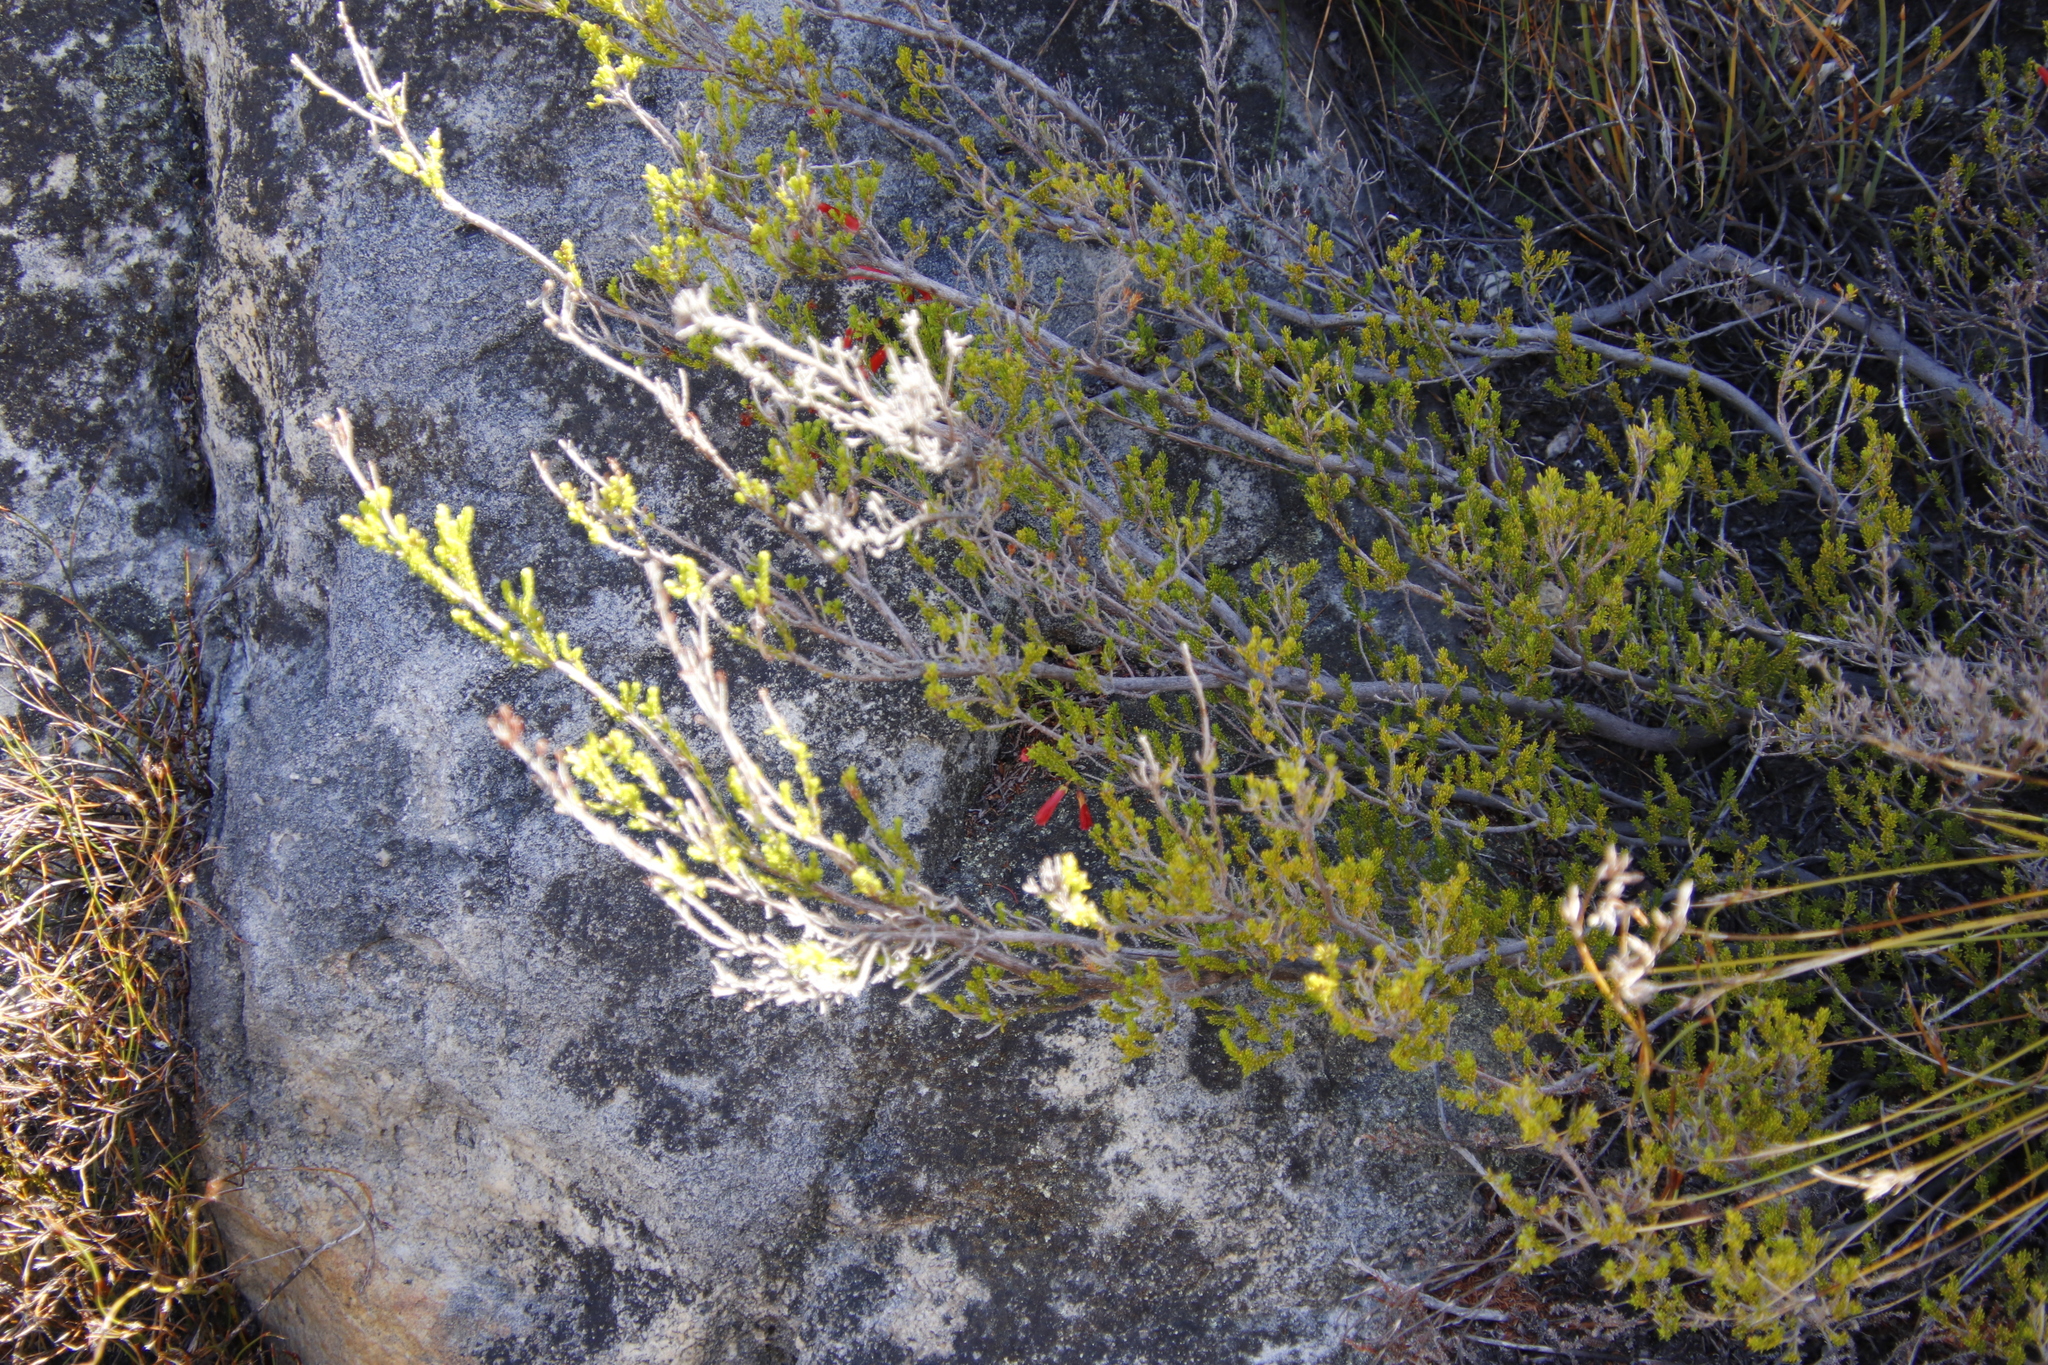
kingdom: Plantae
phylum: Tracheophyta
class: Magnoliopsida
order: Ericales
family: Ericaceae
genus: Erica
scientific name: Erica haematosiphon
